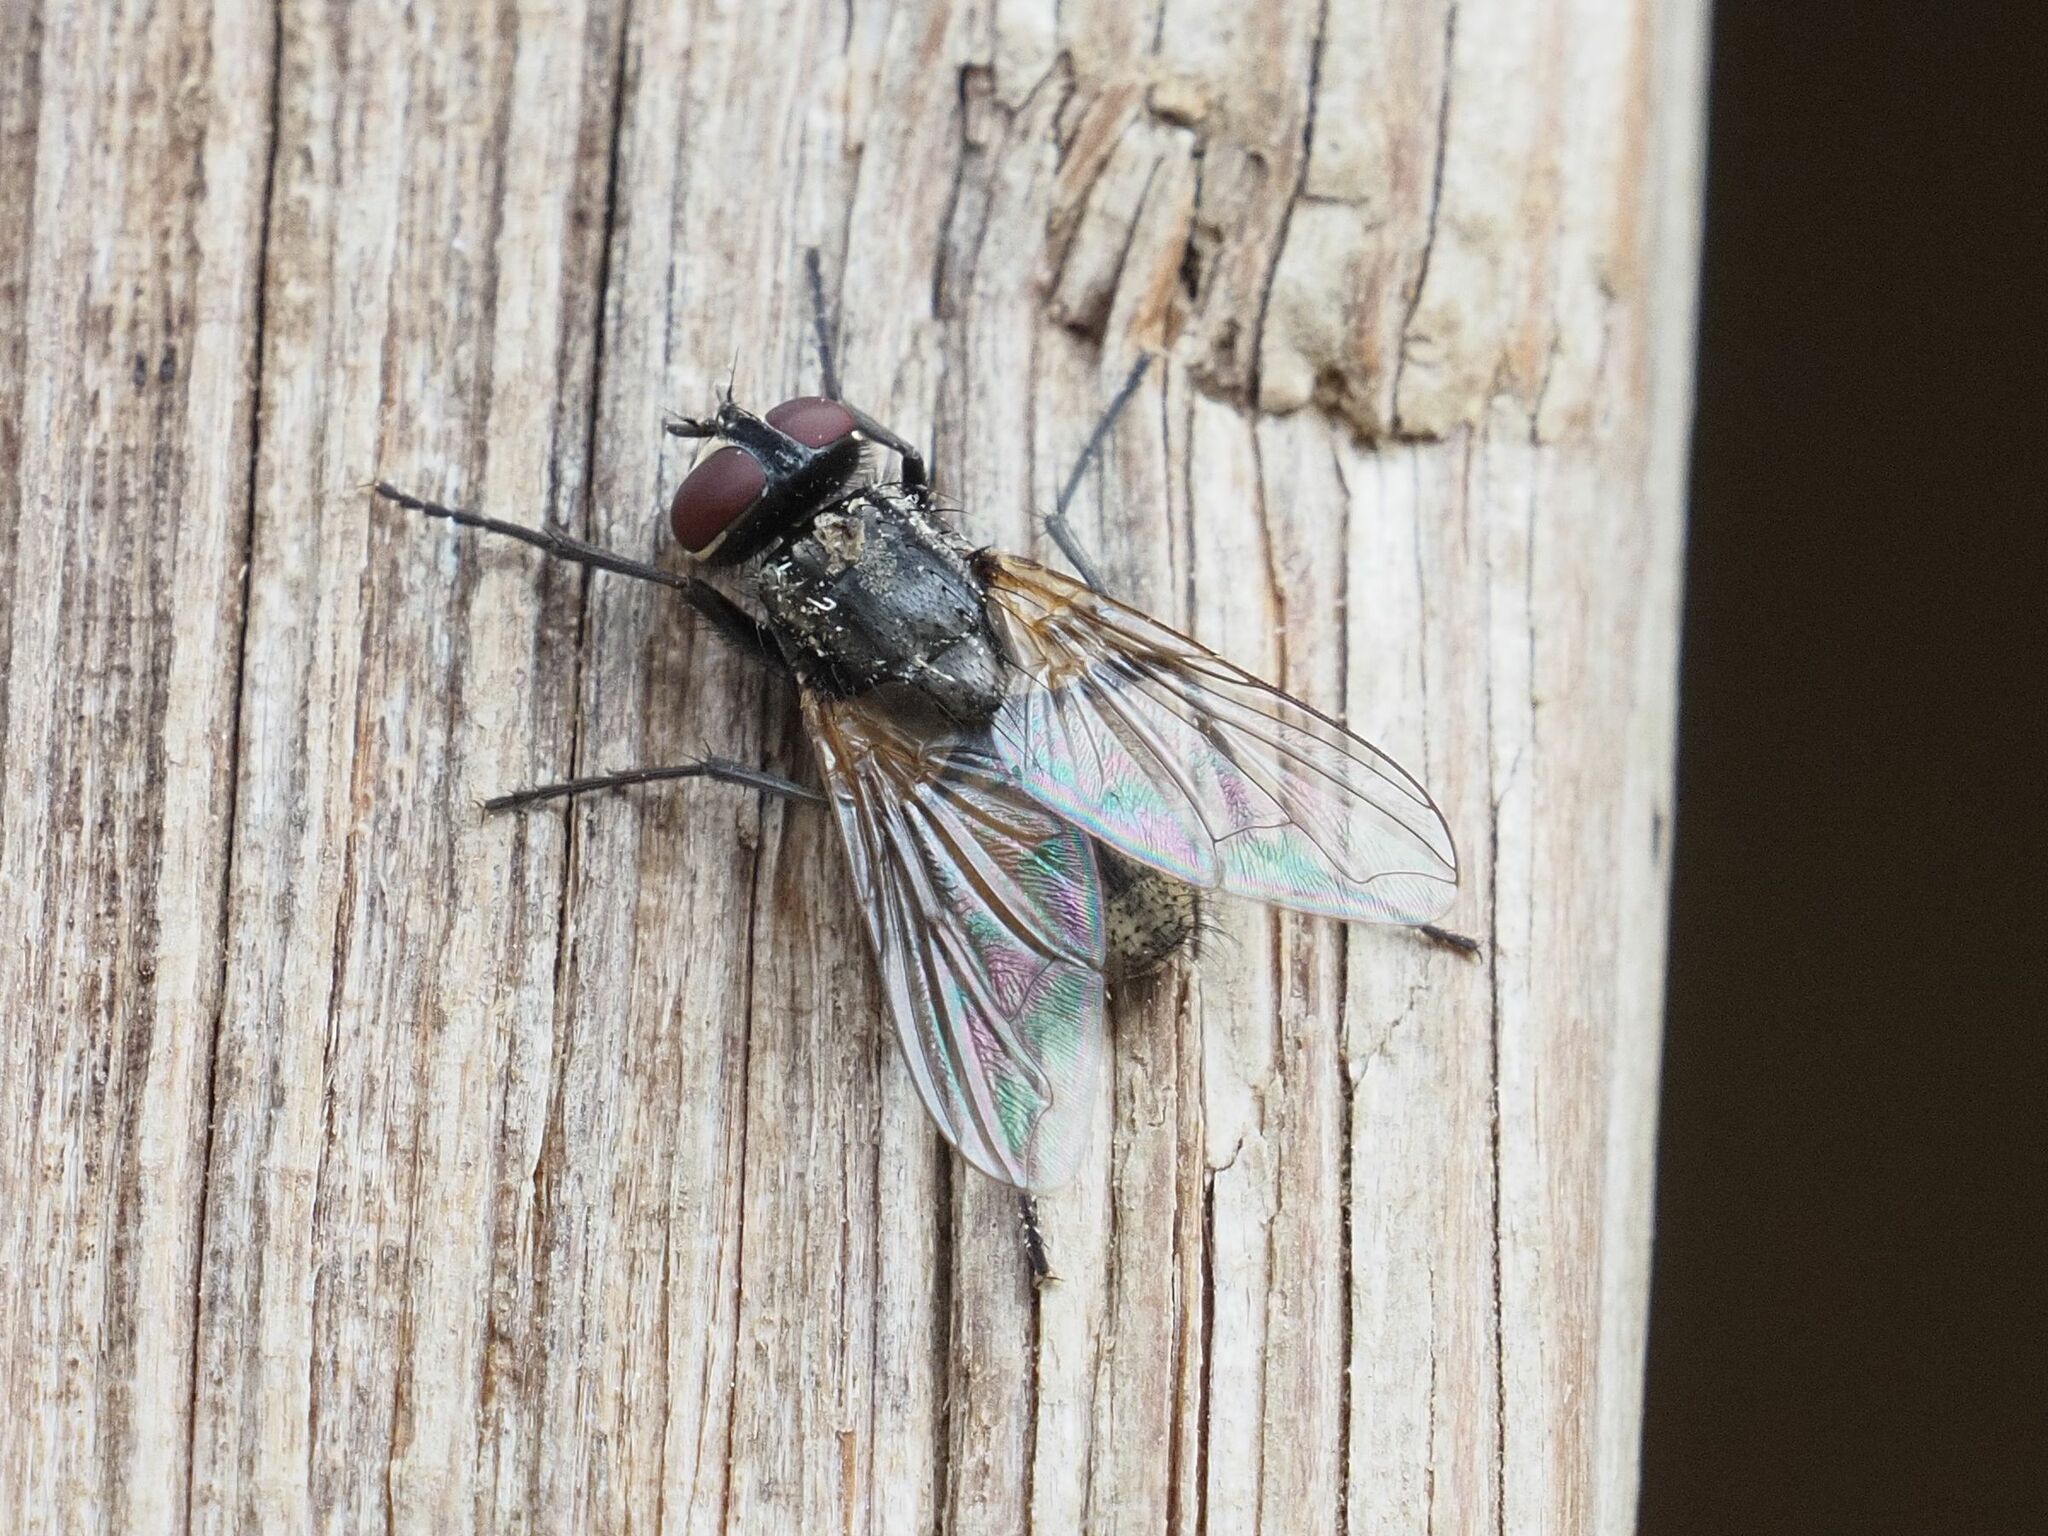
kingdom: Animalia
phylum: Arthropoda
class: Insecta
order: Diptera
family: Muscidae
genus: Musca
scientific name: Musca domestica
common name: House fly
